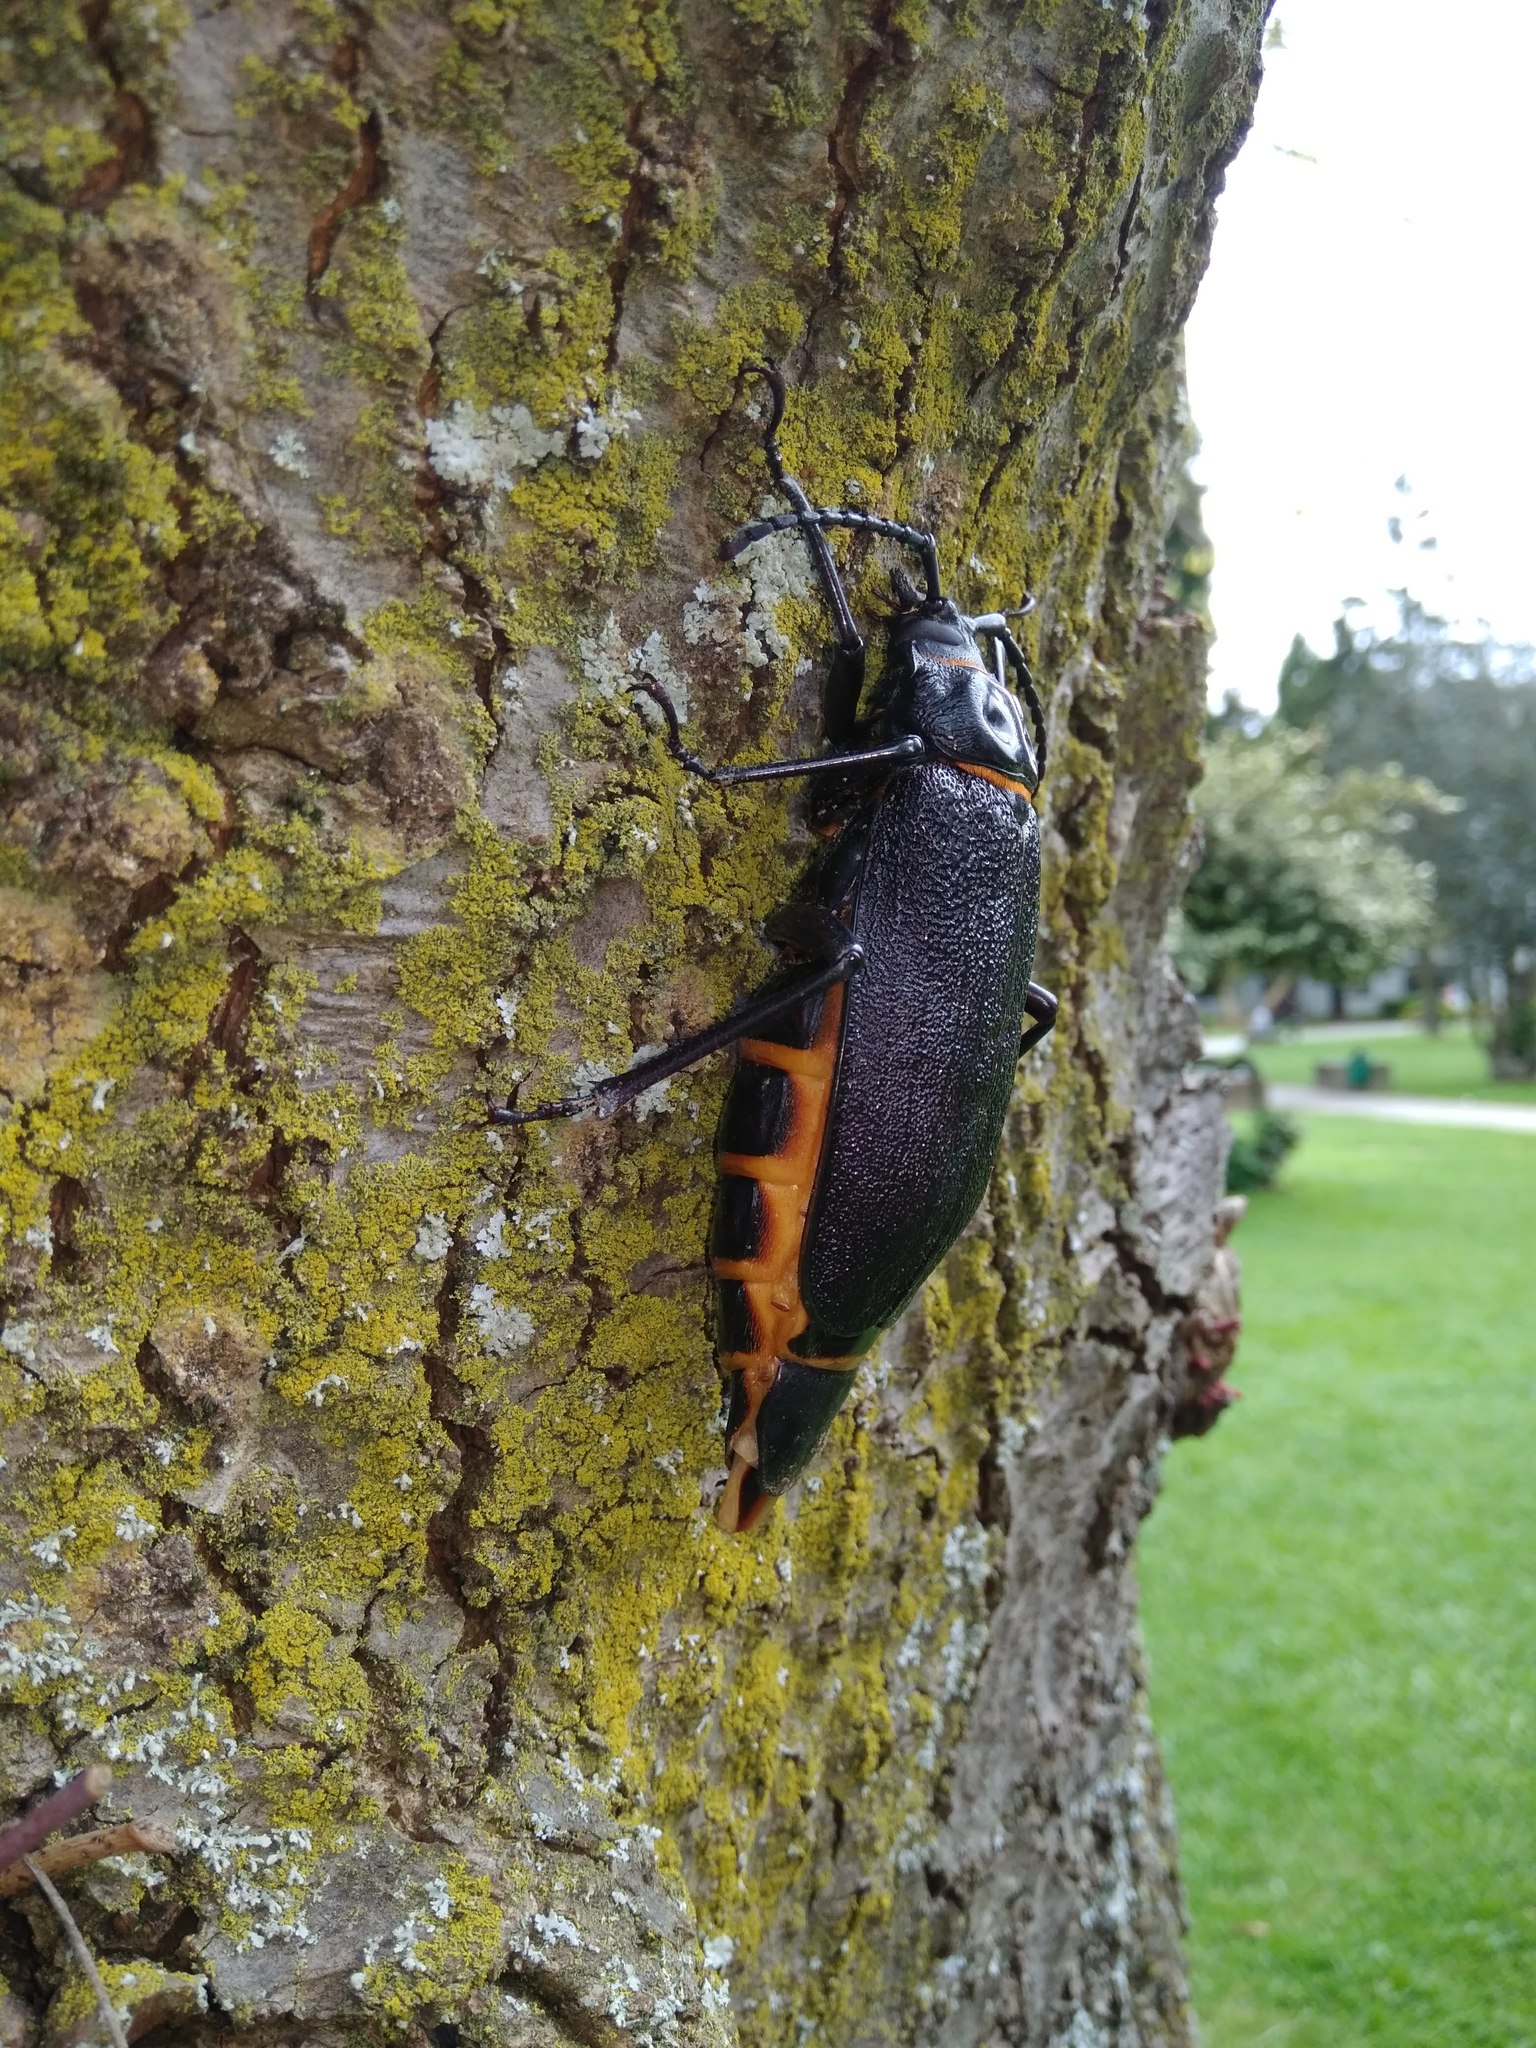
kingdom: Animalia
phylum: Arthropoda
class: Insecta
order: Coleoptera
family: Cerambycidae
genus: Acanthinodera
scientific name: Acanthinodera cumingii
